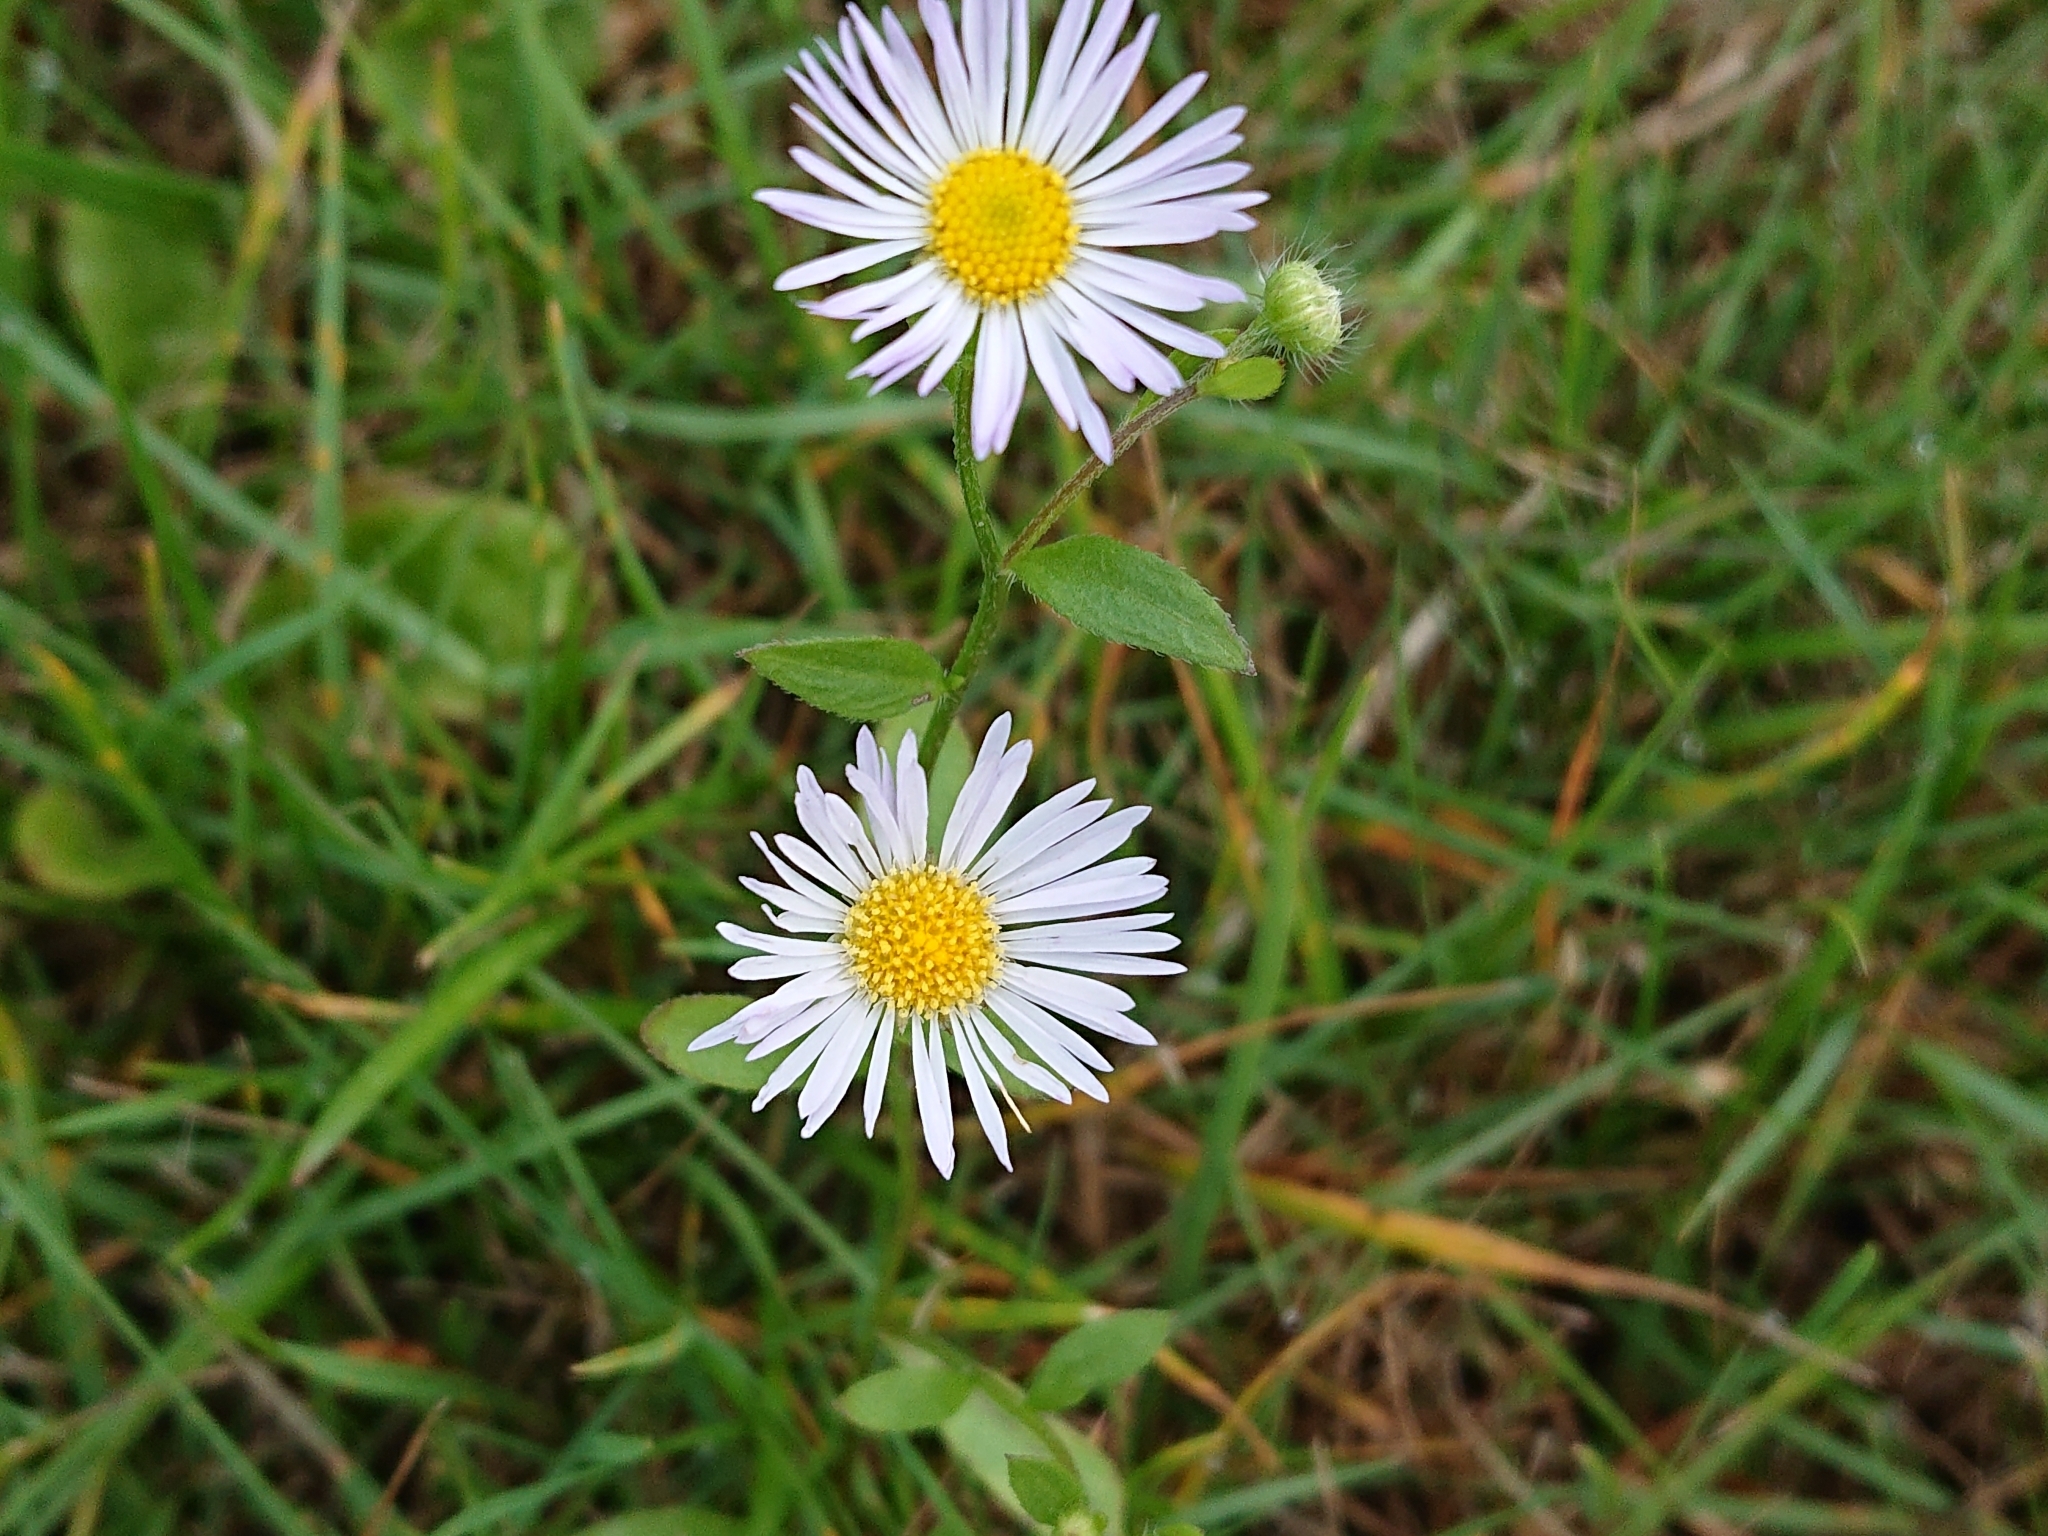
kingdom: Plantae
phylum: Tracheophyta
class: Magnoliopsida
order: Asterales
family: Asteraceae
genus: Erigeron
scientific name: Erigeron annuus
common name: Tall fleabane
